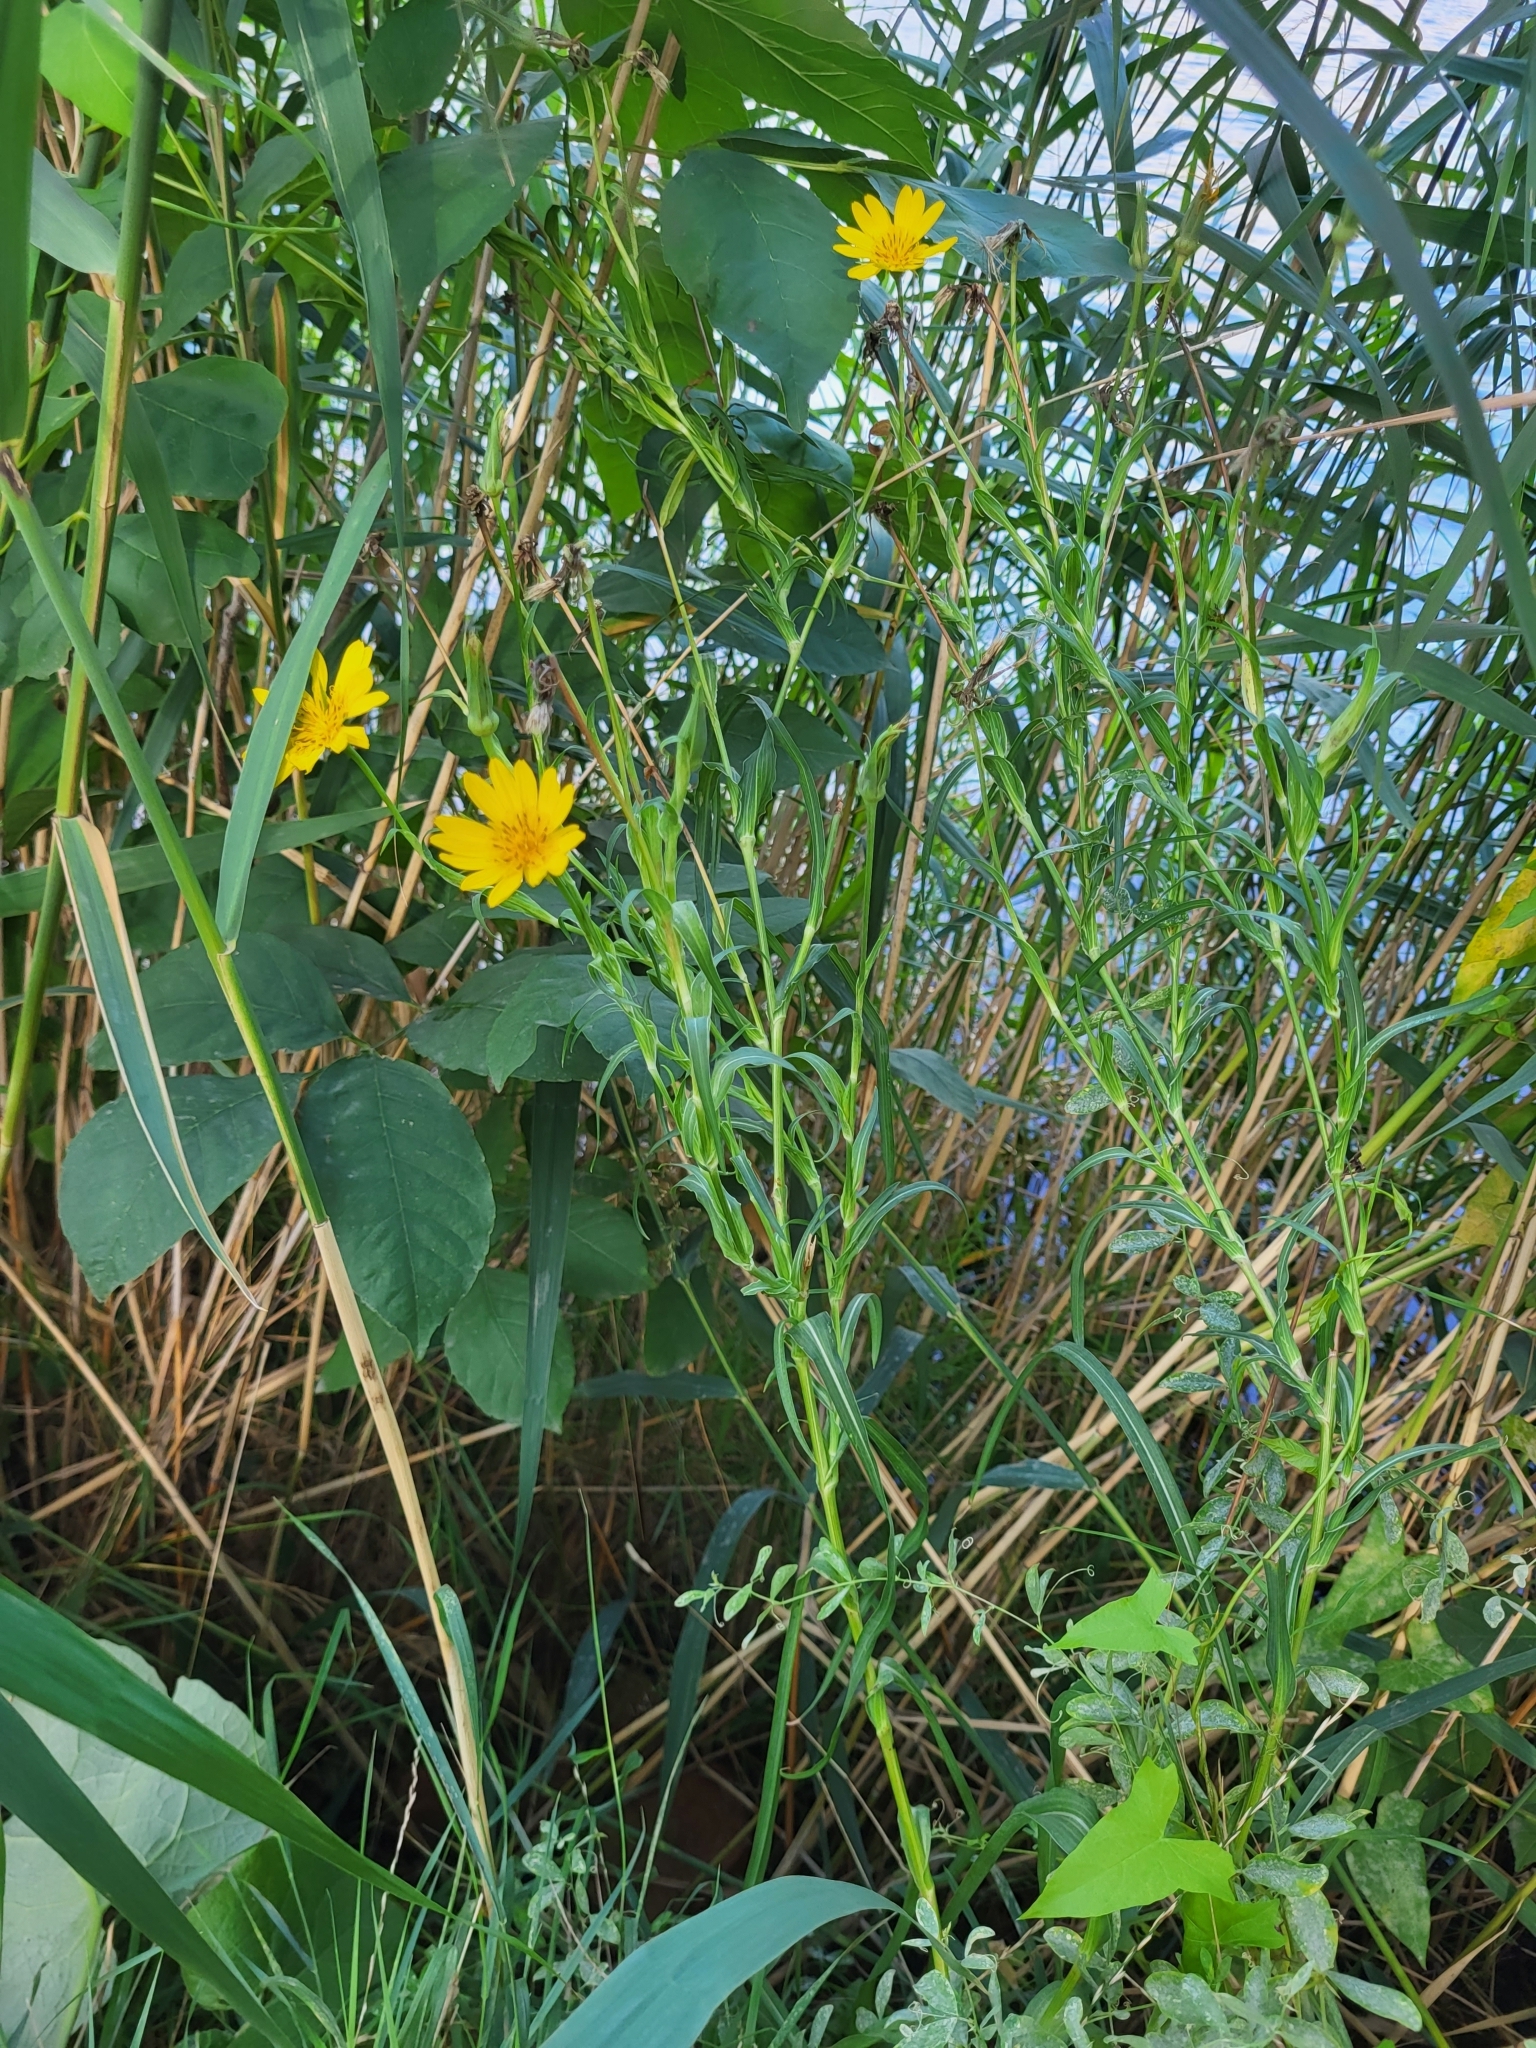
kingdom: Plantae
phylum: Tracheophyta
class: Magnoliopsida
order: Asterales
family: Asteraceae
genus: Tragopogon
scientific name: Tragopogon orientalis
